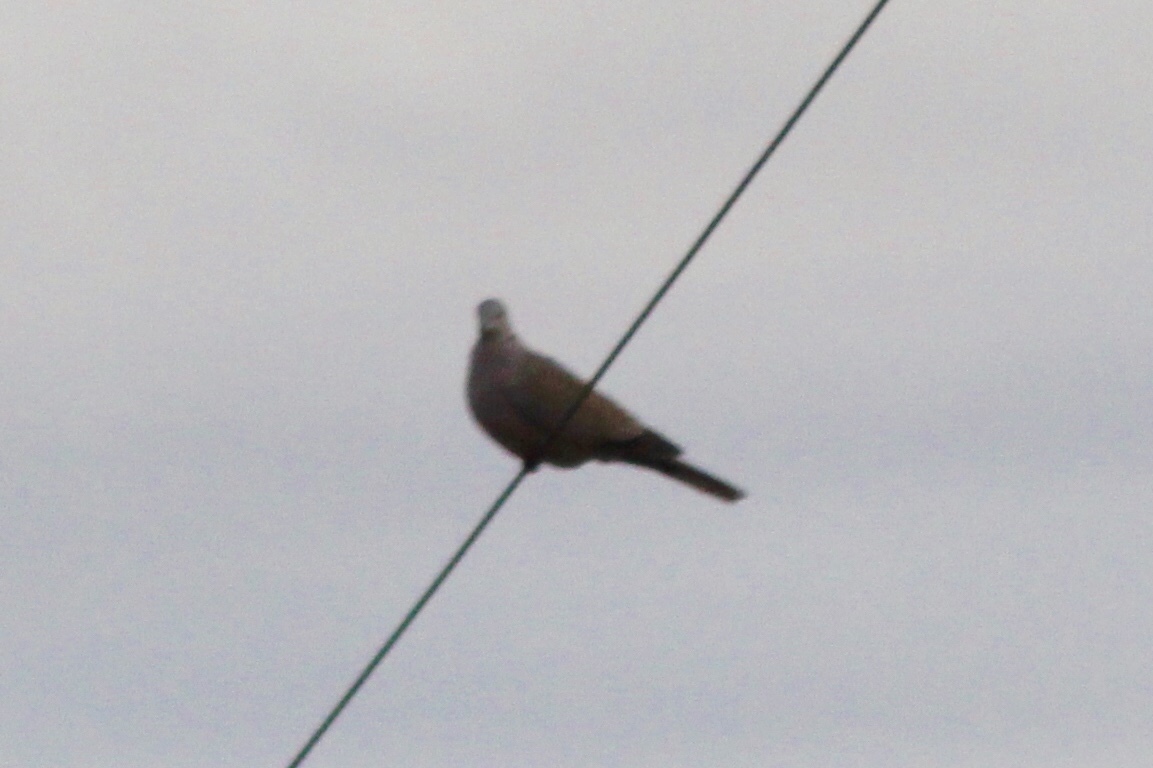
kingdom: Animalia
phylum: Chordata
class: Aves
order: Columbiformes
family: Columbidae
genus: Streptopelia
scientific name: Streptopelia decaocto
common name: Eurasian collared dove
